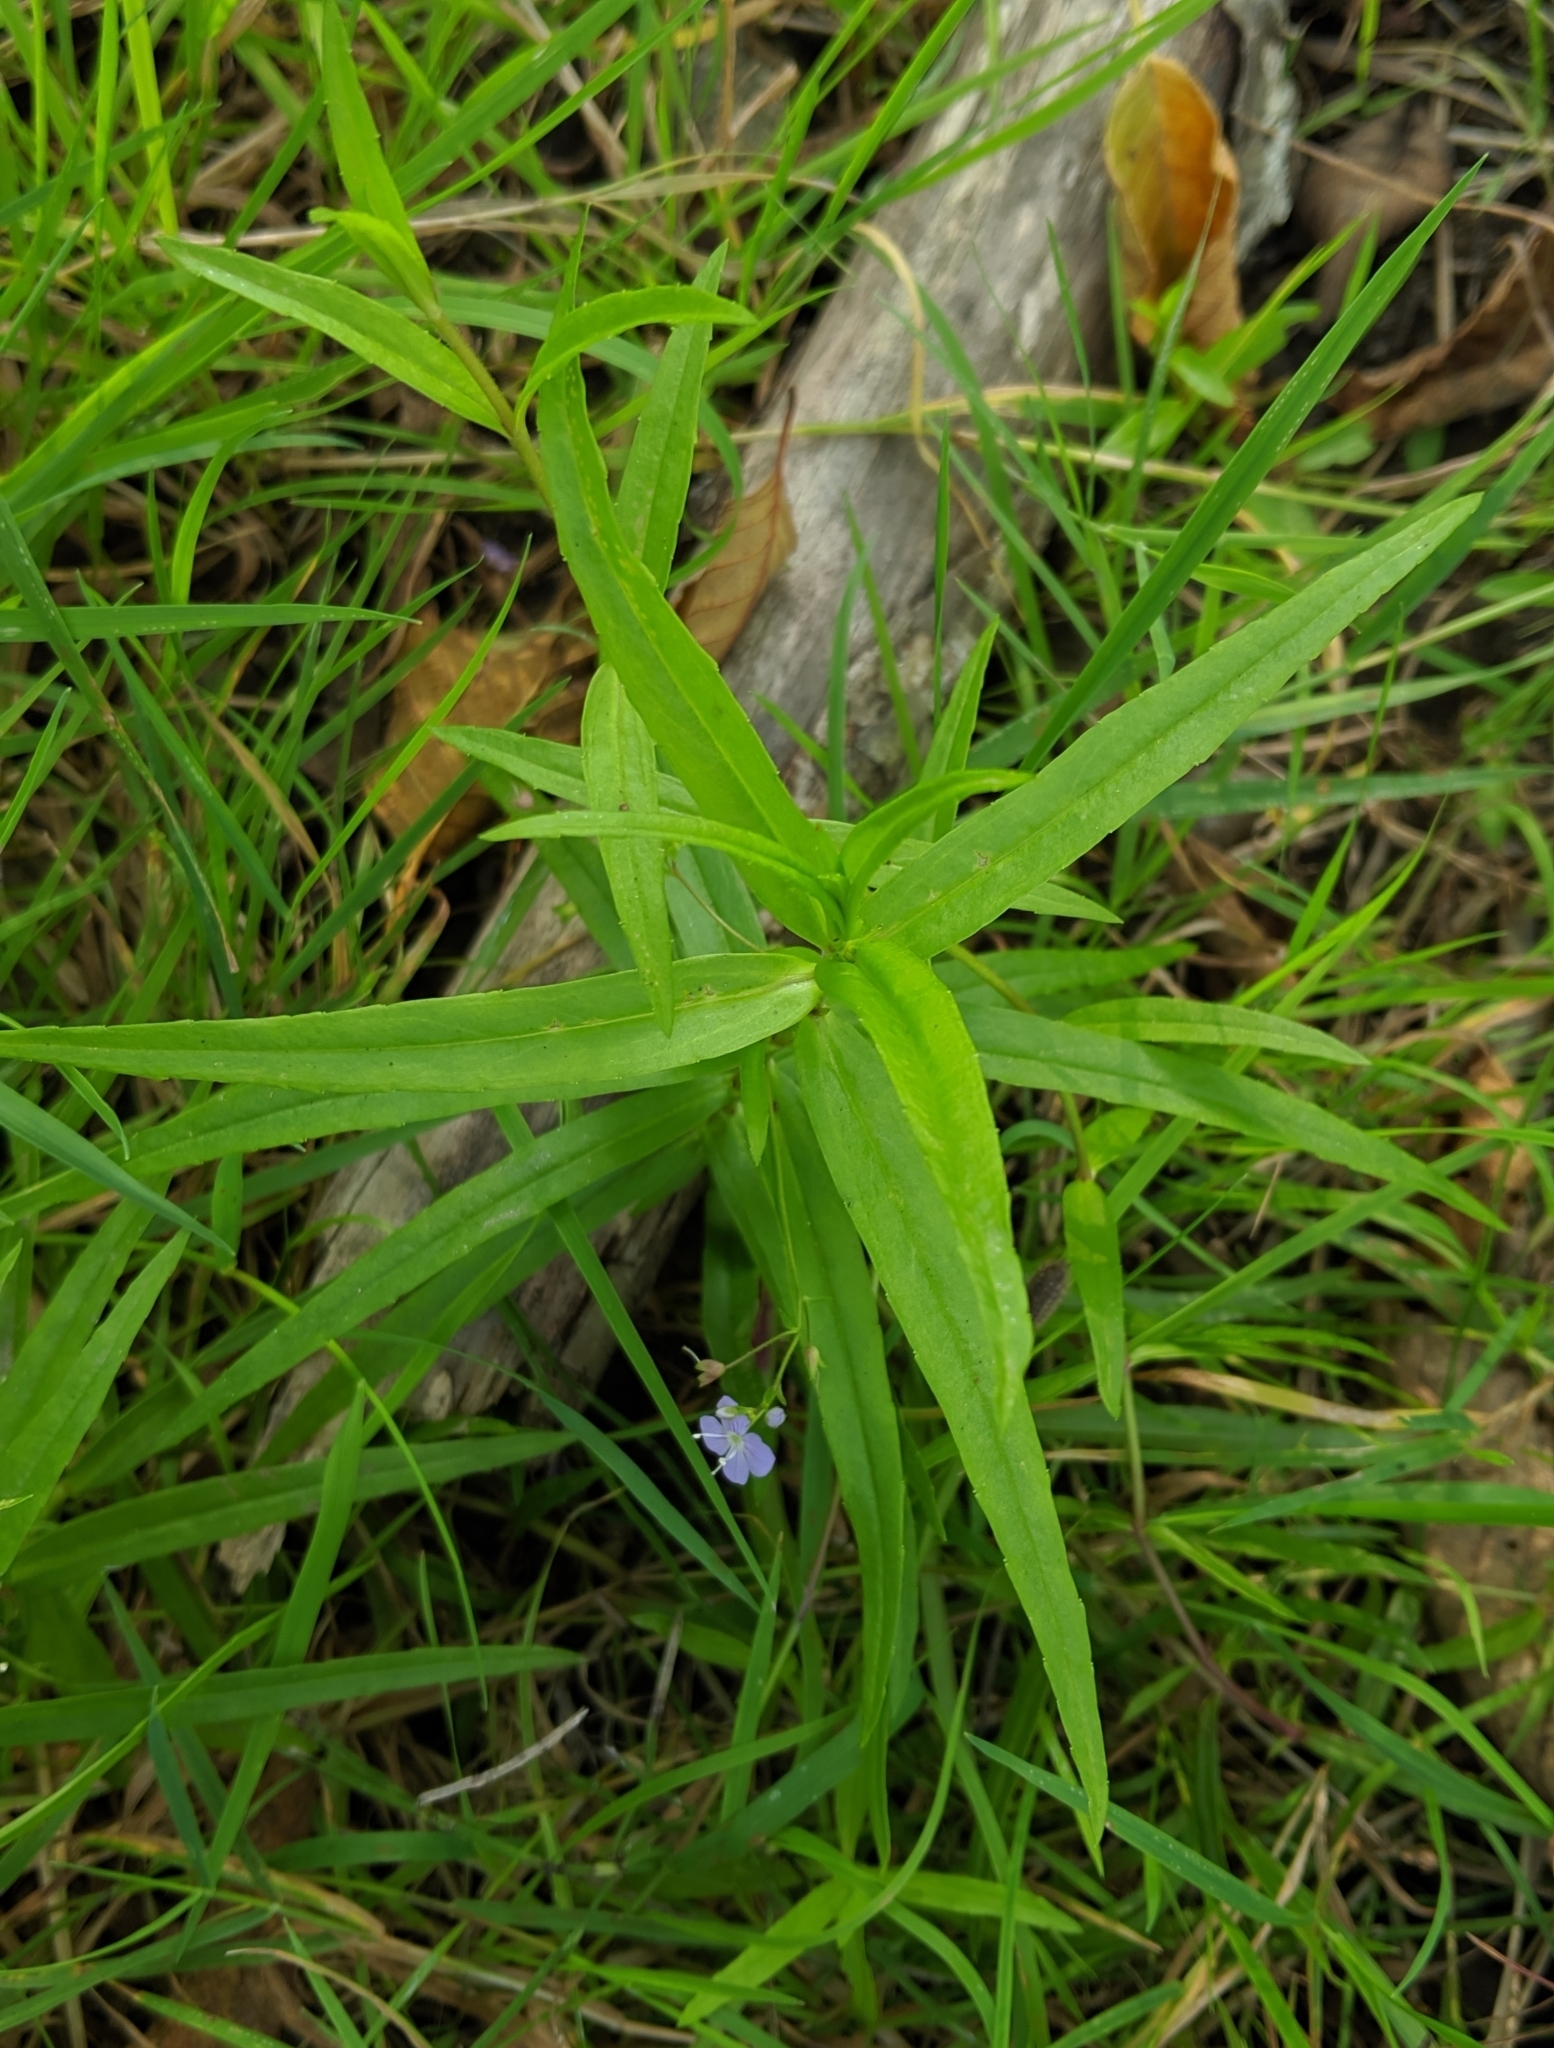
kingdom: Plantae
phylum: Tracheophyta
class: Magnoliopsida
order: Lamiales
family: Plantaginaceae
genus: Veronica
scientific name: Veronica scutellata
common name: Marsh speedwell
